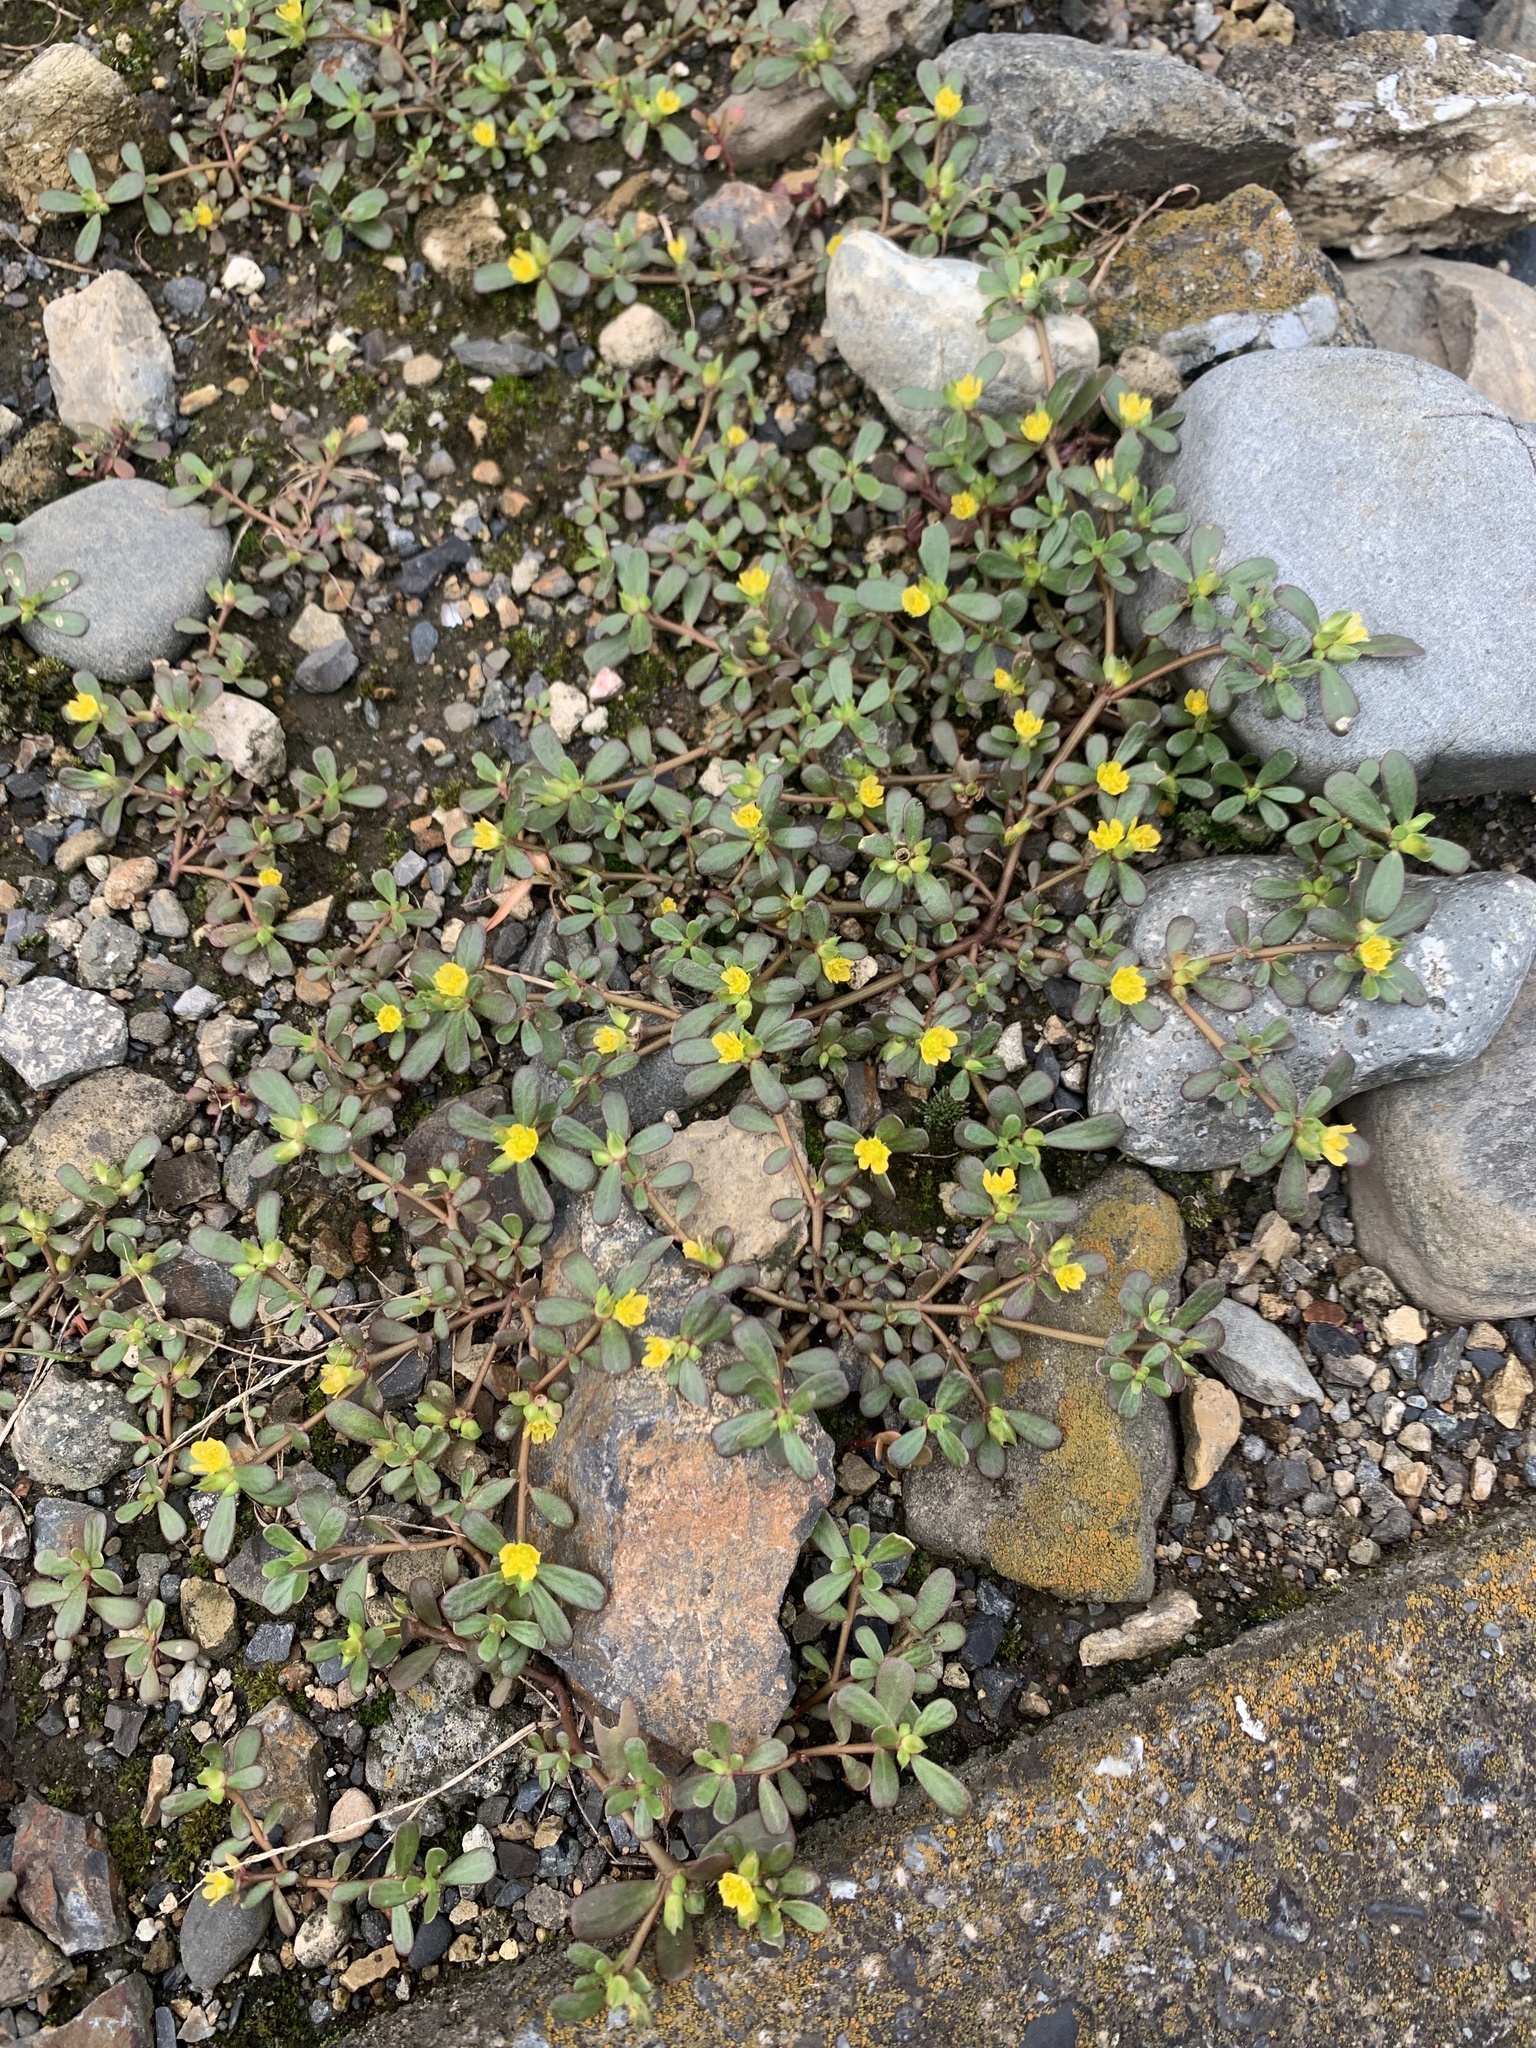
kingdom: Plantae
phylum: Tracheophyta
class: Magnoliopsida
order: Caryophyllales
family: Portulacaceae
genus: Portulaca
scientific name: Portulaca oleracea
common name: Common purslane
